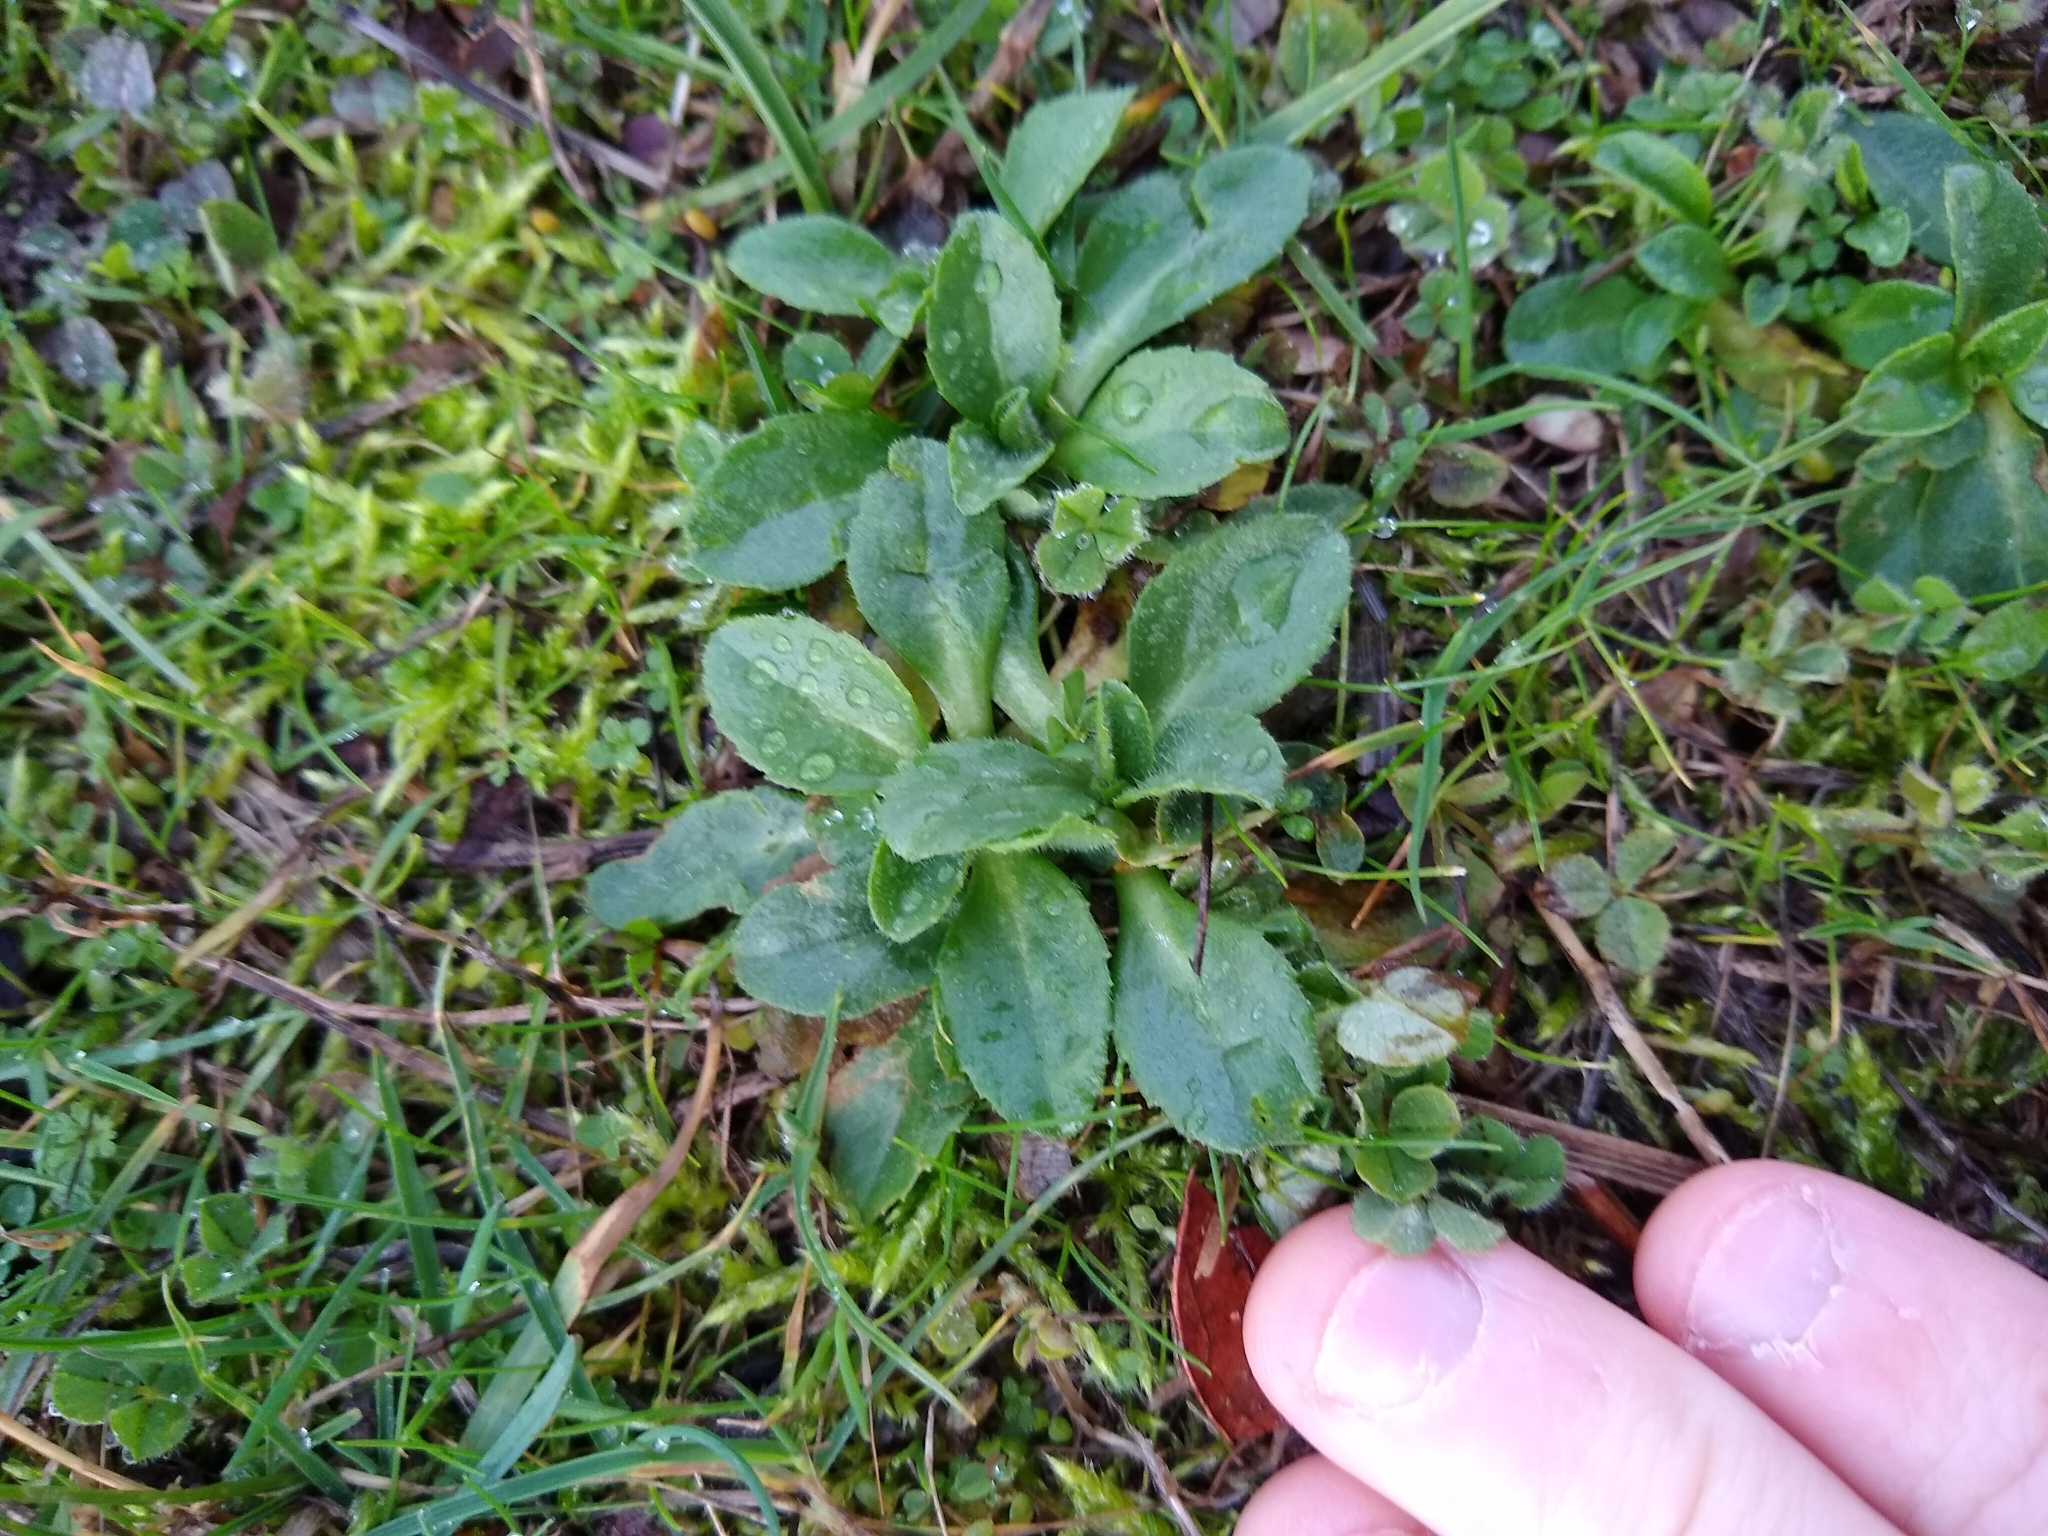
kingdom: Plantae
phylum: Tracheophyta
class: Magnoliopsida
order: Asterales
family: Asteraceae
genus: Bellis
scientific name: Bellis perennis
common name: Lawndaisy
